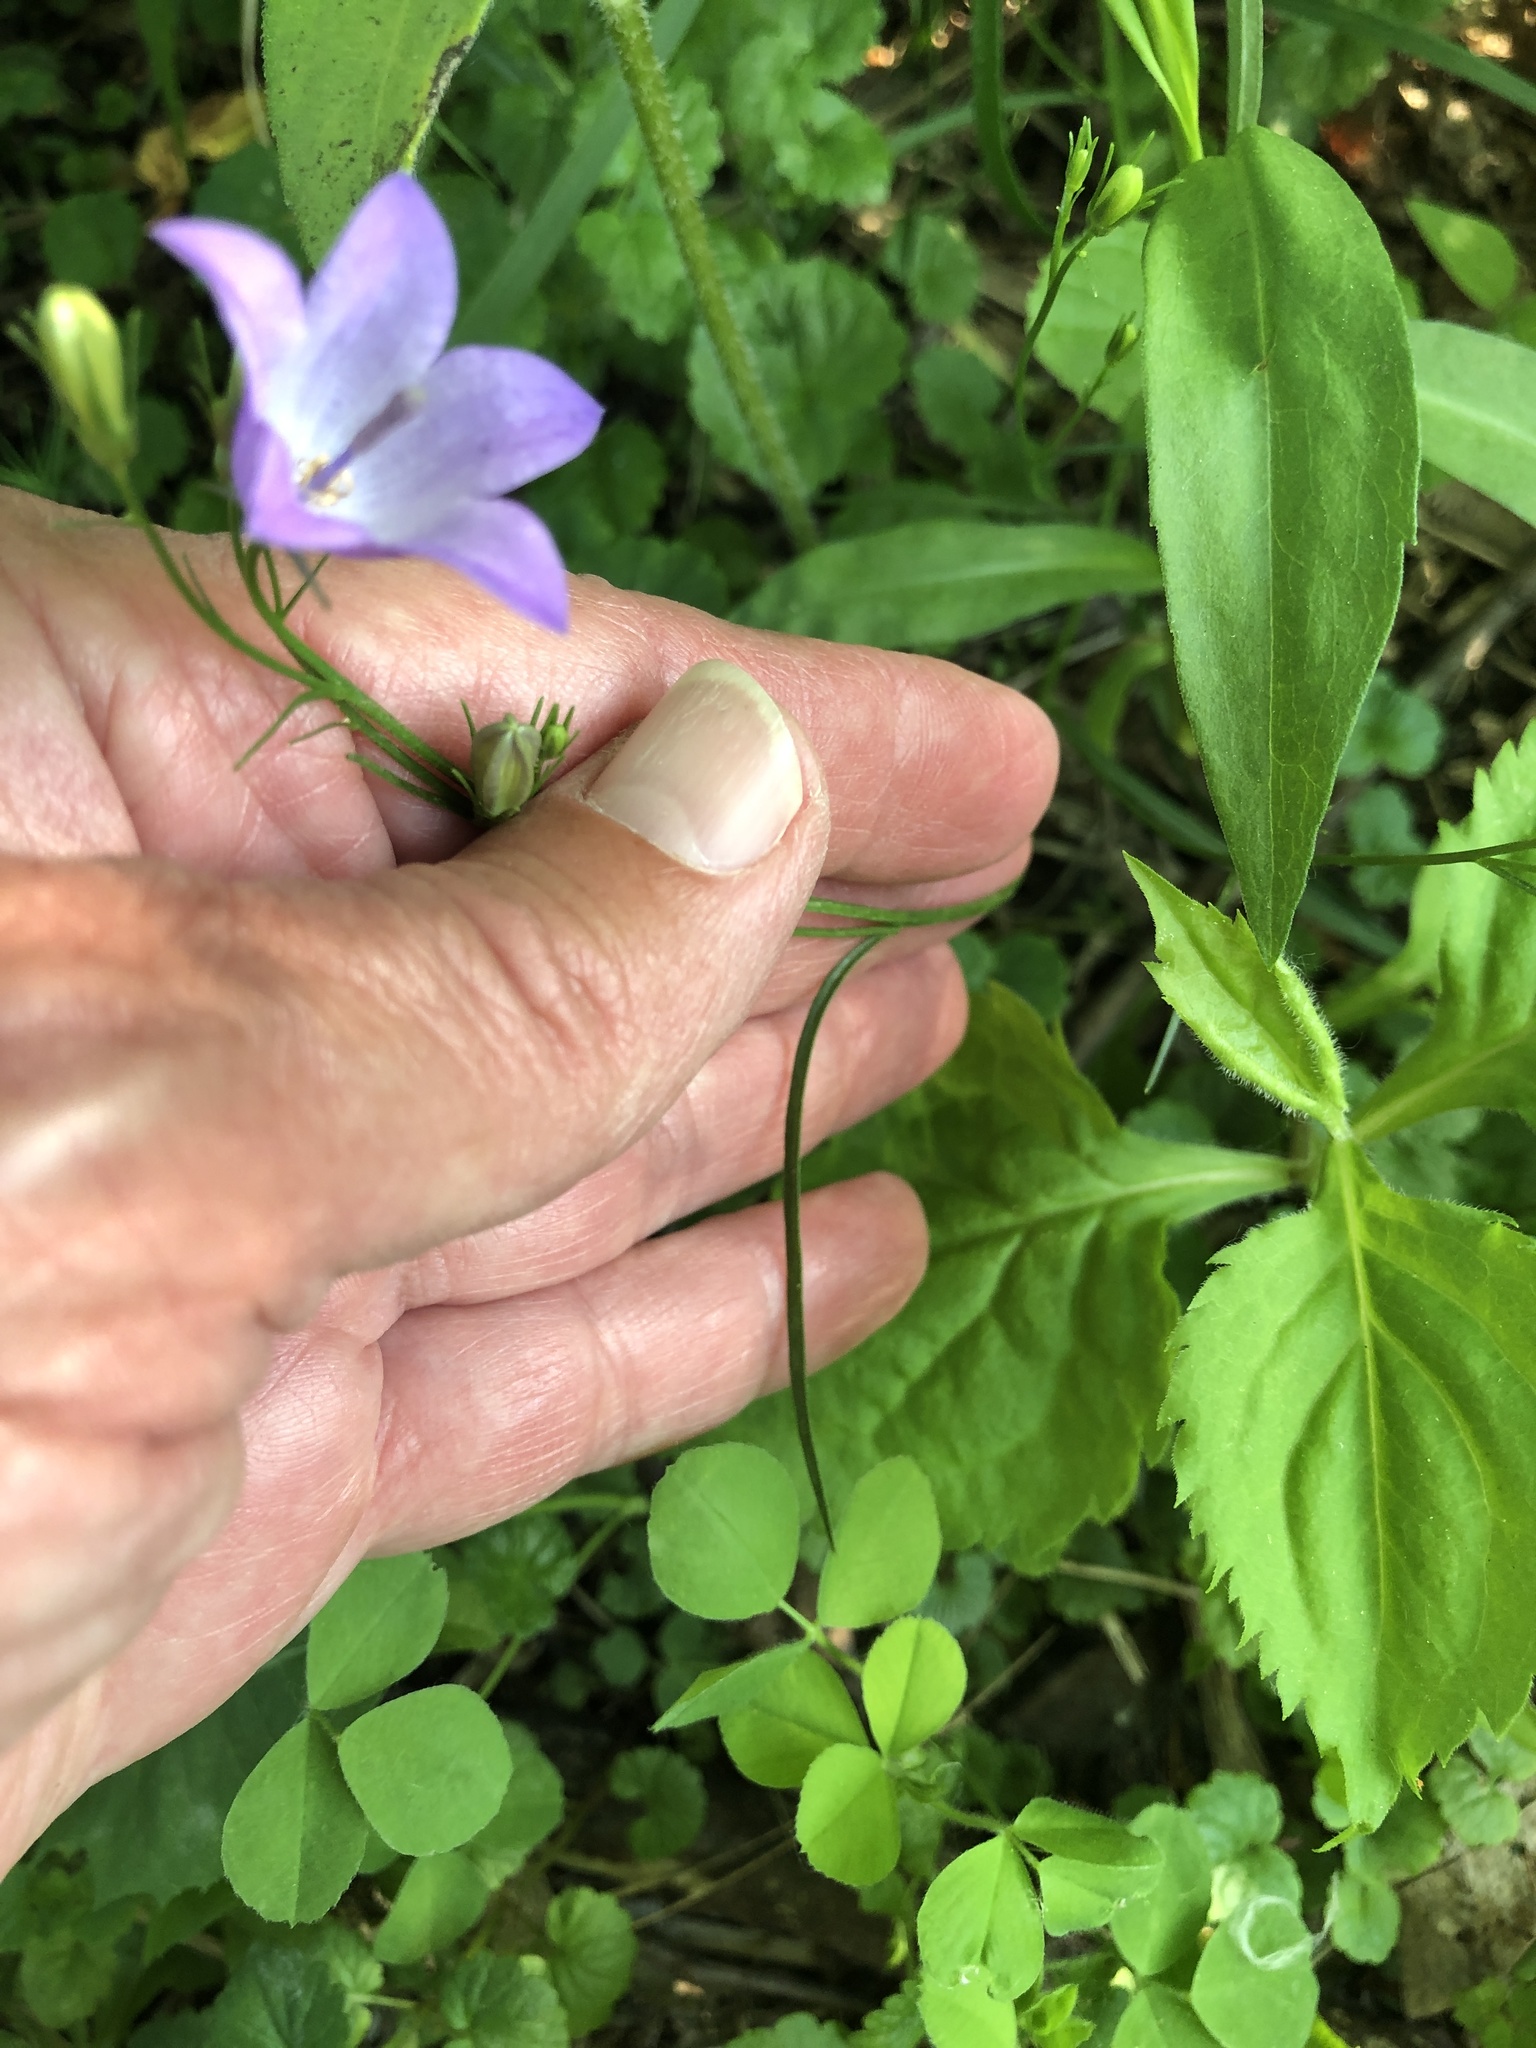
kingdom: Plantae
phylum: Tracheophyta
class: Magnoliopsida
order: Asterales
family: Campanulaceae
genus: Campanula
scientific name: Campanula intercedens
